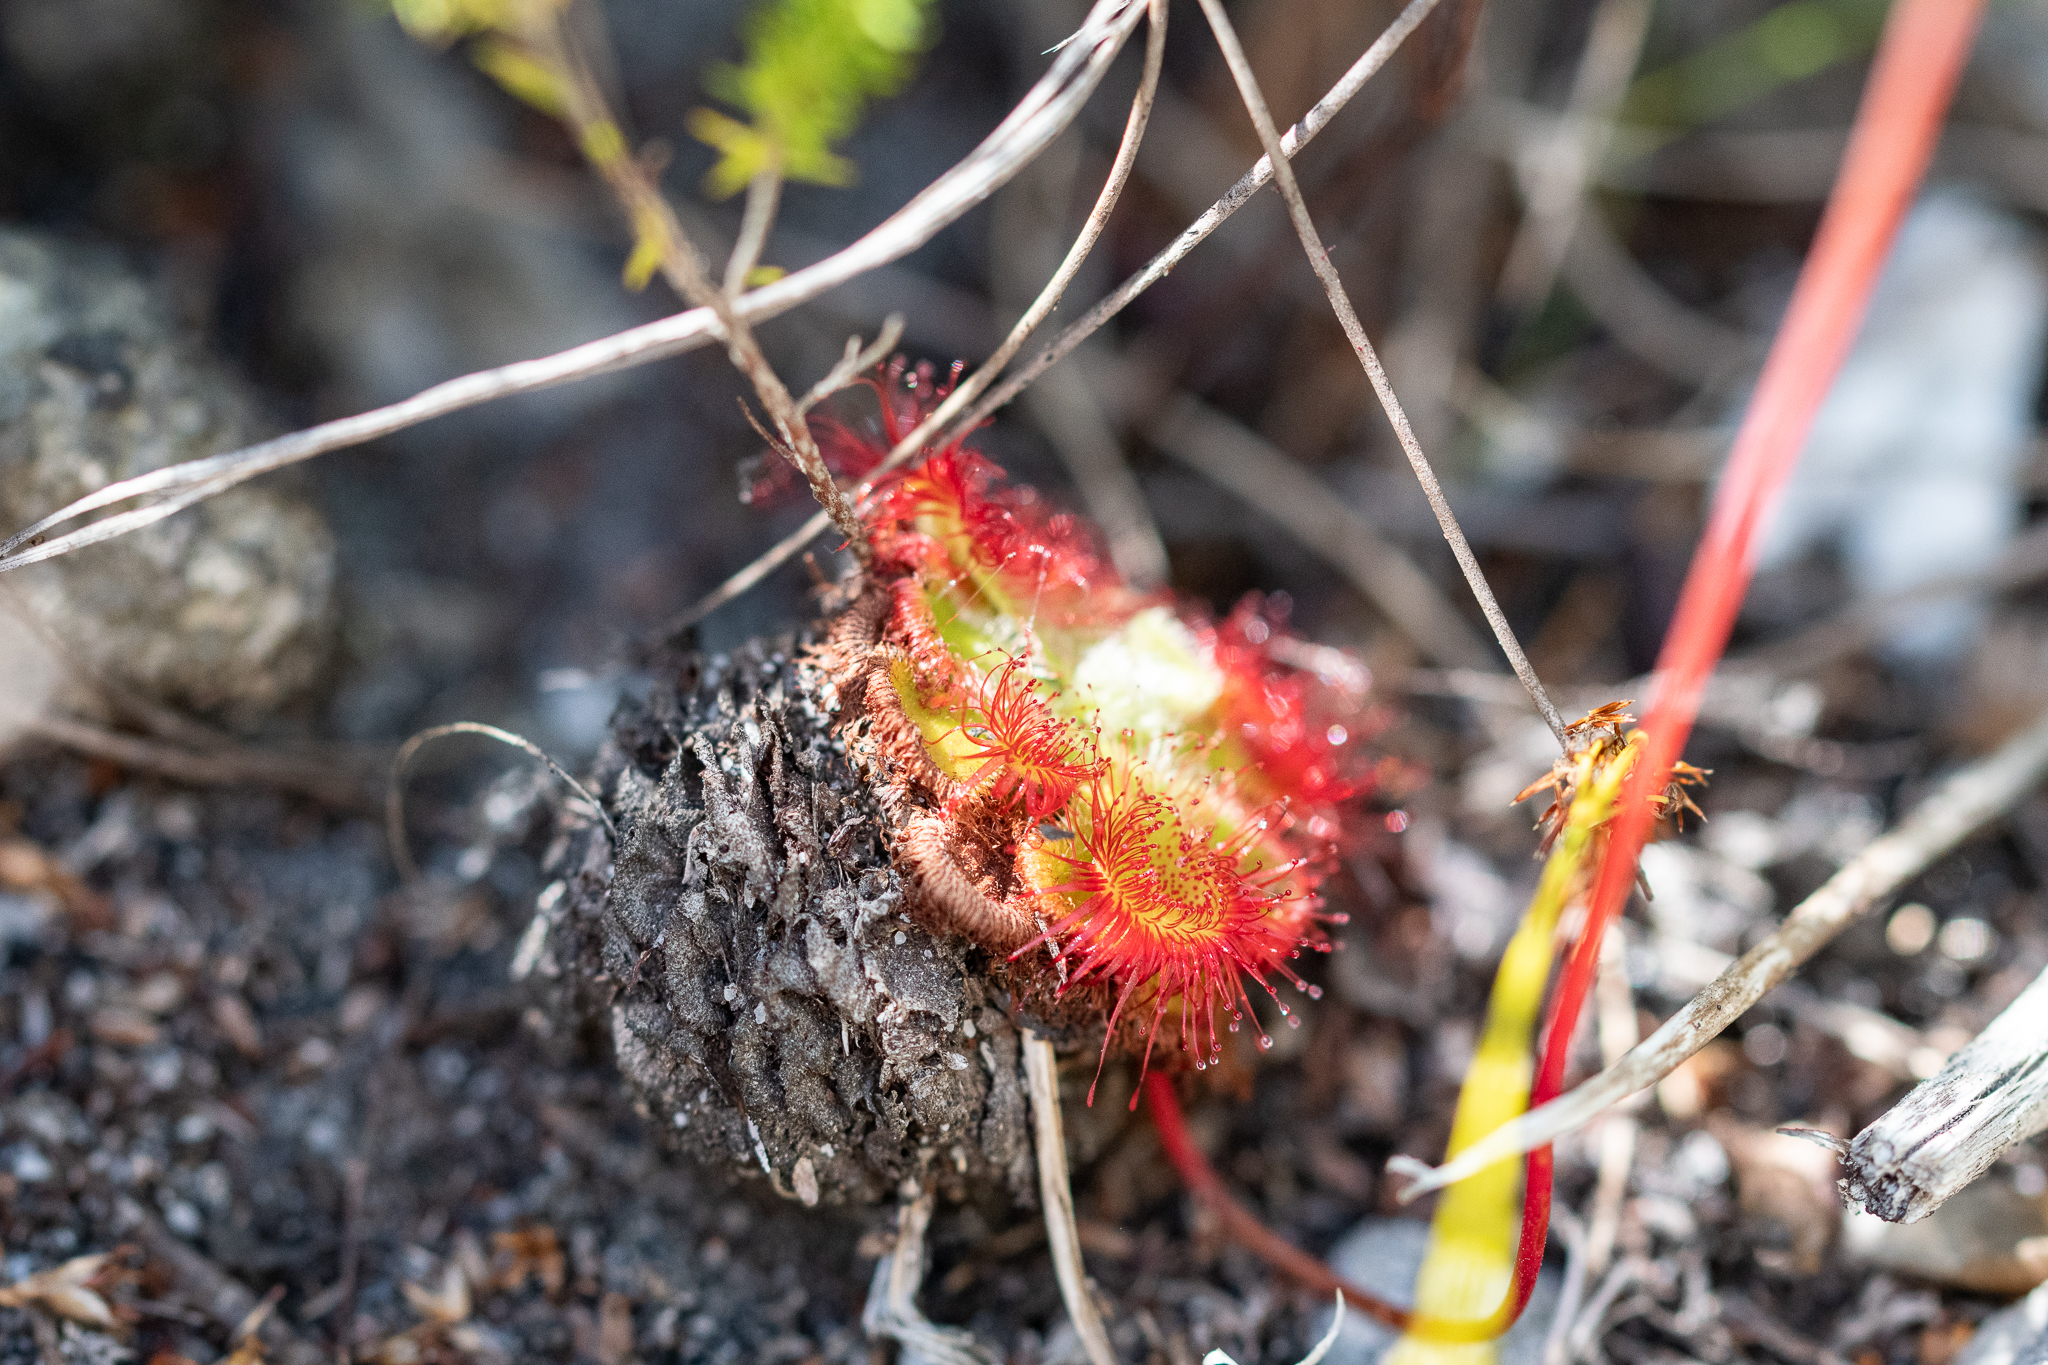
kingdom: Plantae
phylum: Tracheophyta
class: Magnoliopsida
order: Caryophyllales
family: Droseraceae
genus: Drosera
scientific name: Drosera xerophila
